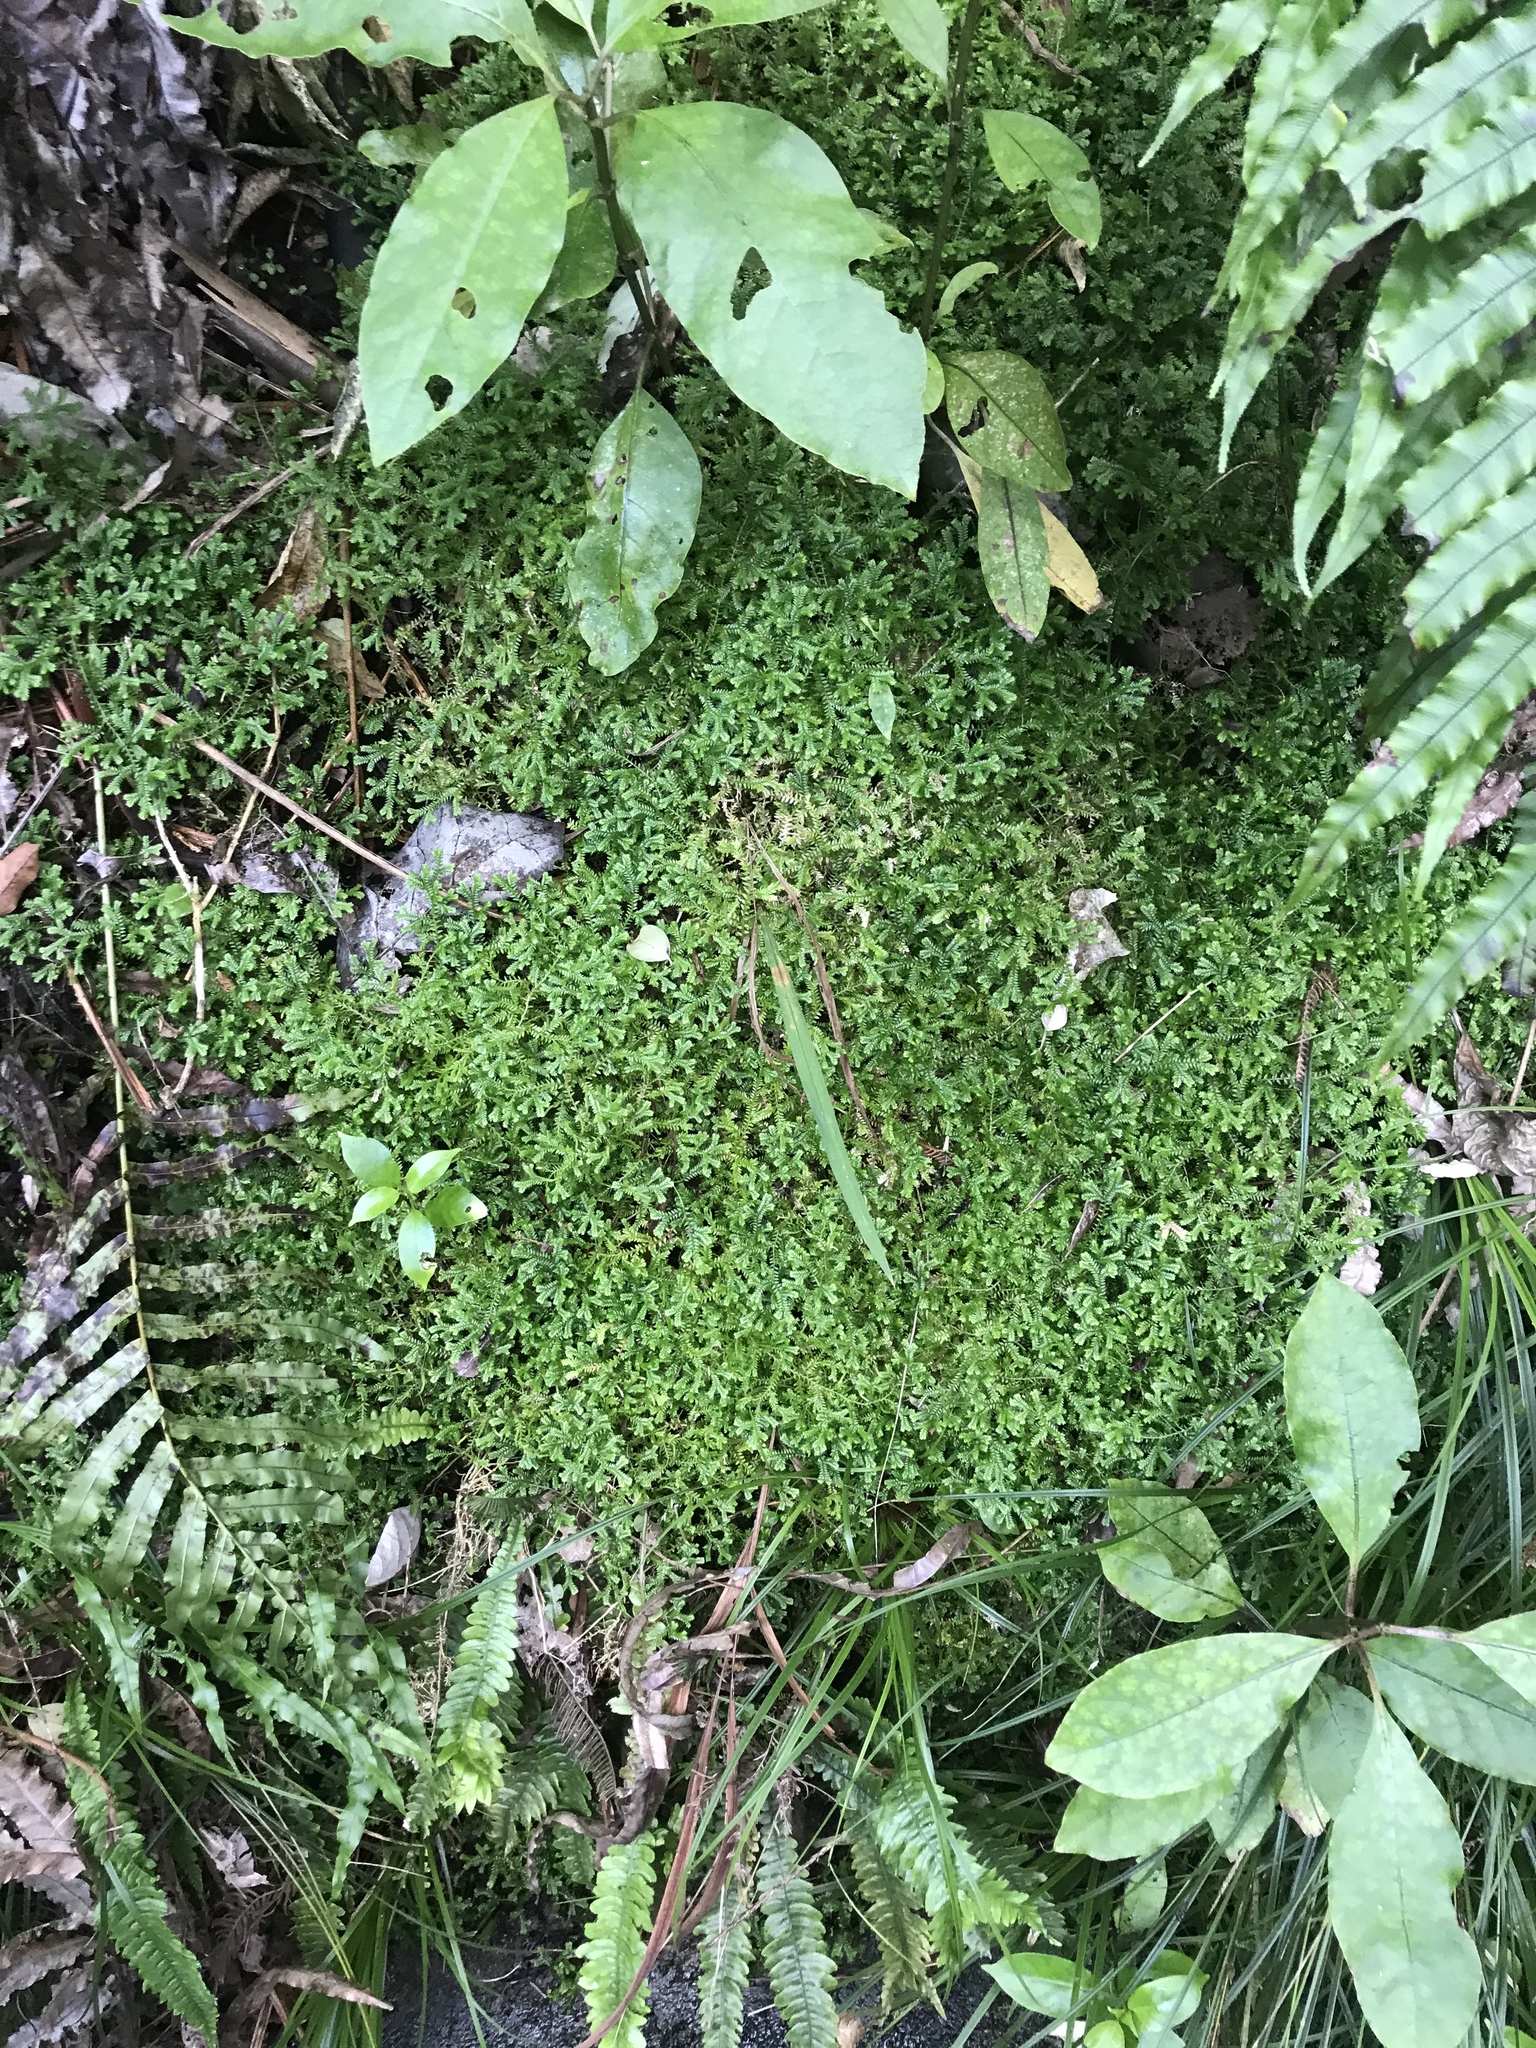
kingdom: Plantae
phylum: Tracheophyta
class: Lycopodiopsida
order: Selaginellales
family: Selaginellaceae
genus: Selaginella
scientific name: Selaginella kraussiana
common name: Krauss' spikemoss
